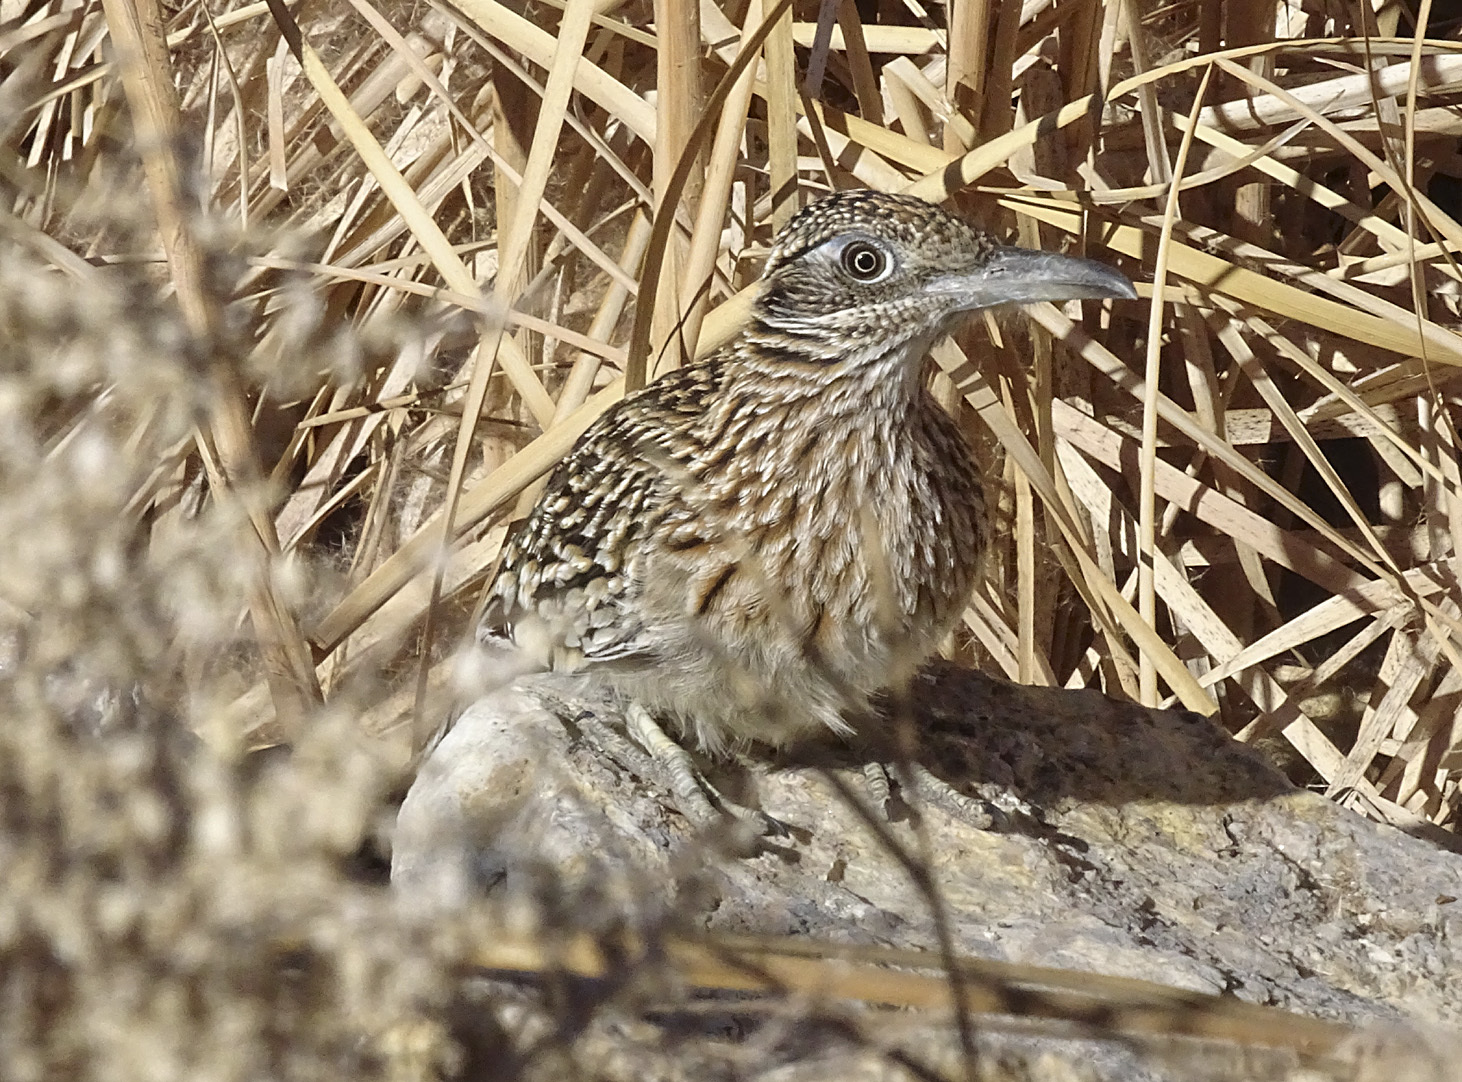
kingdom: Animalia
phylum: Chordata
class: Aves
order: Cuculiformes
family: Cuculidae
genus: Geococcyx
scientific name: Geococcyx californianus
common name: Greater roadrunner
